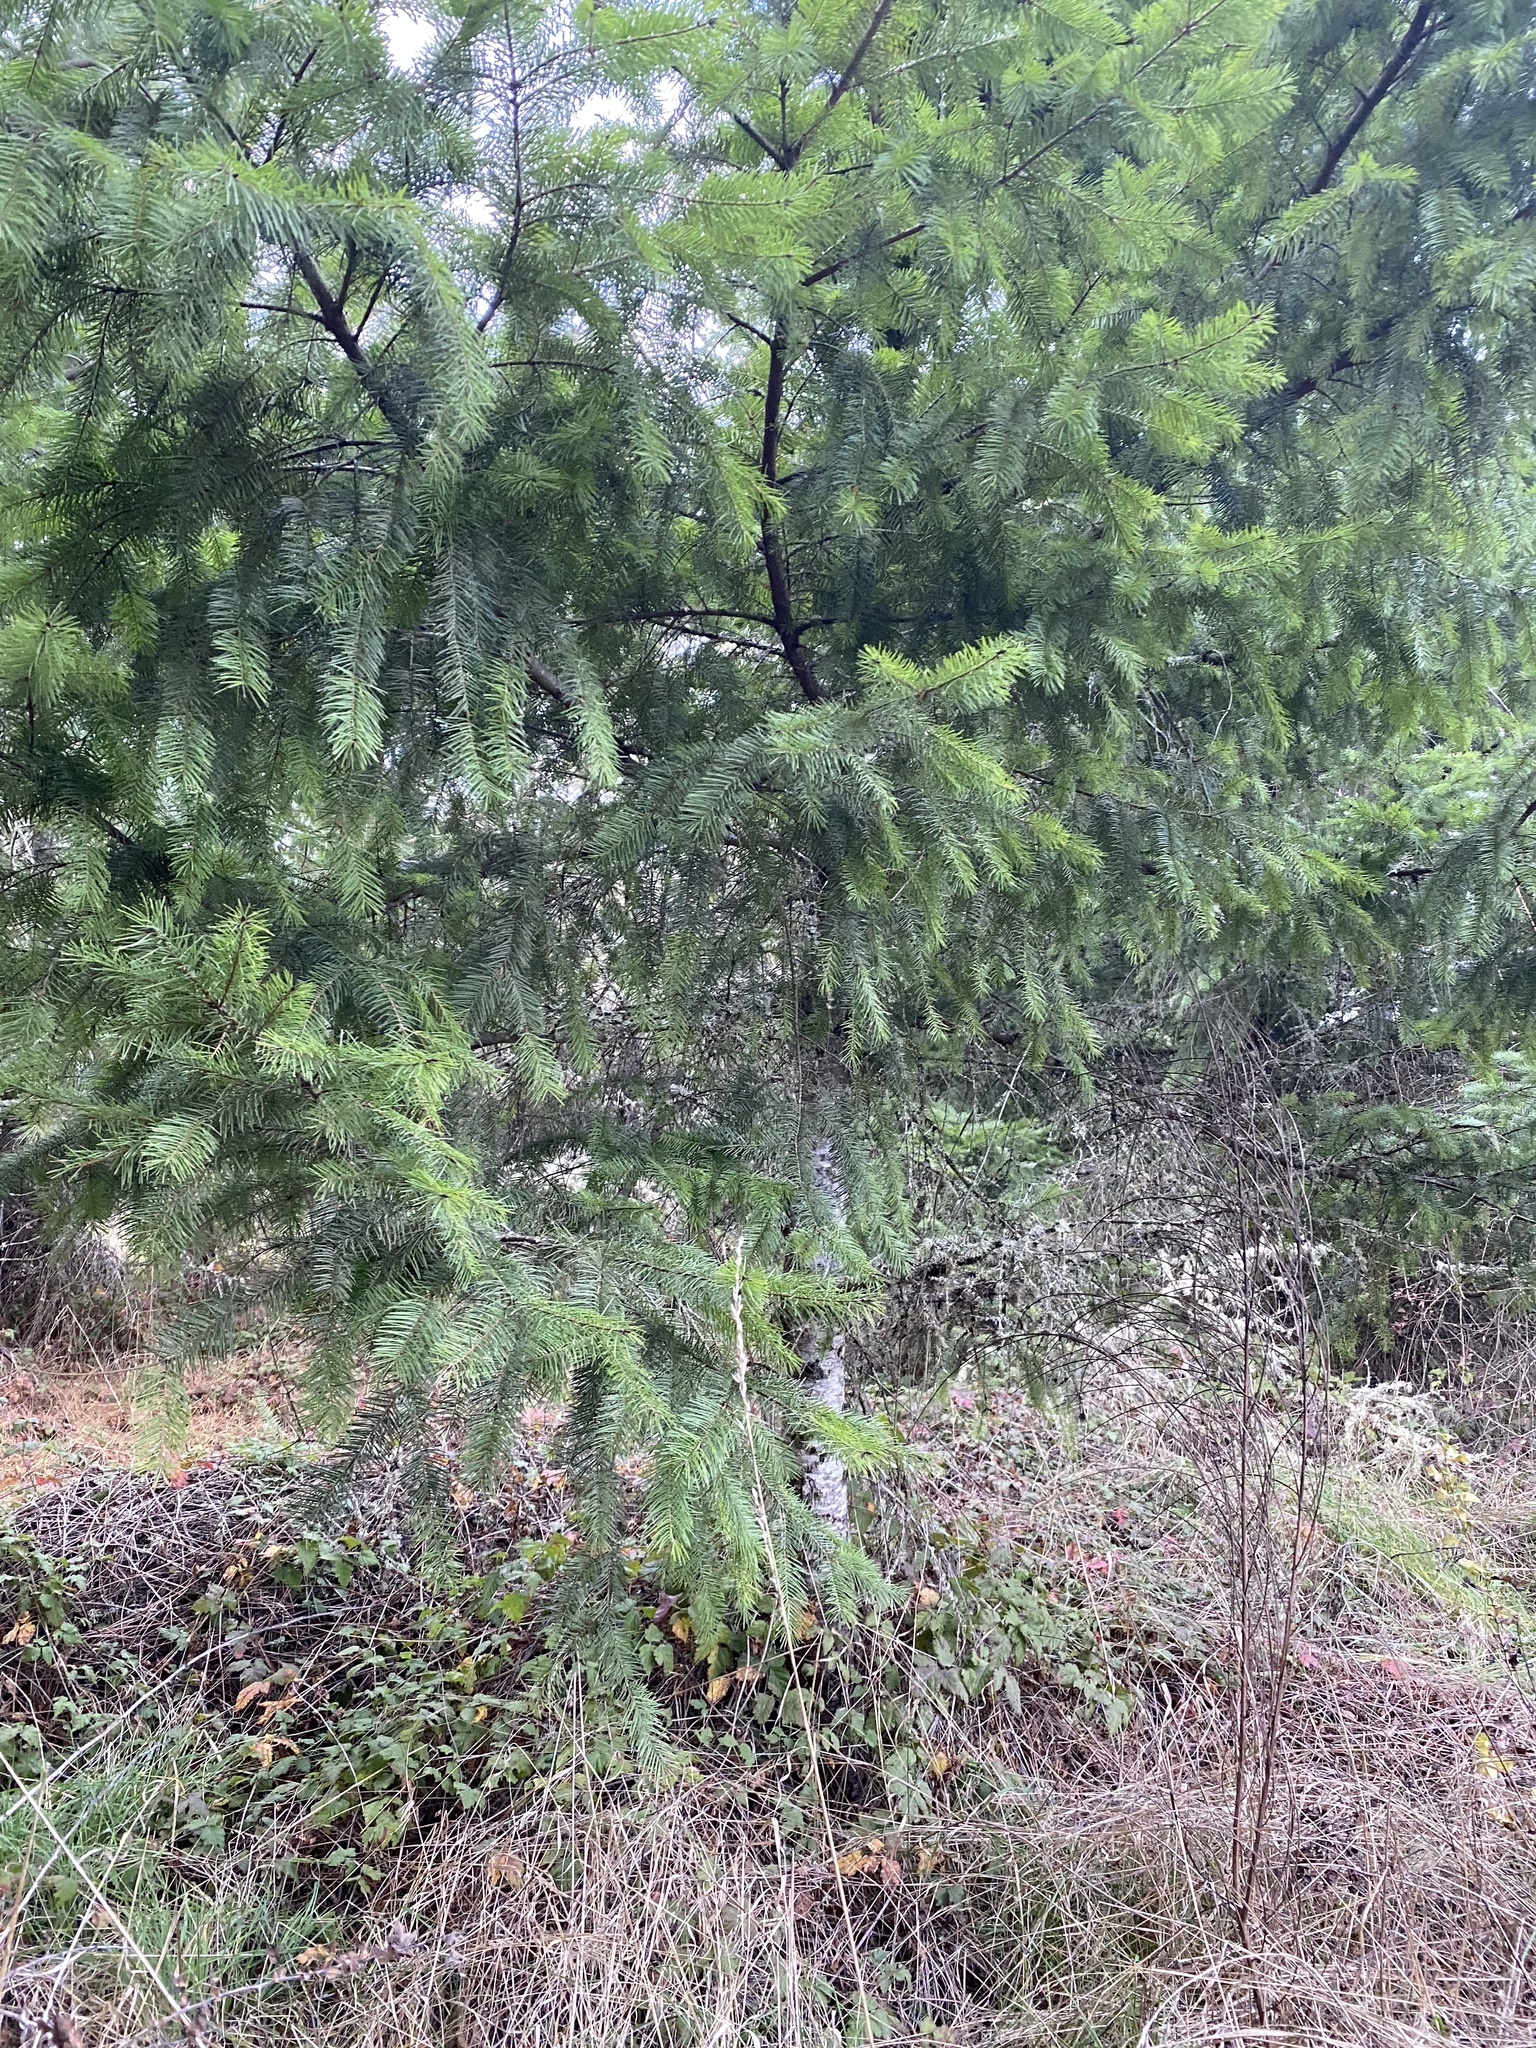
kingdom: Plantae
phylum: Tracheophyta
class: Pinopsida
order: Pinales
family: Pinaceae
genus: Pseudotsuga
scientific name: Pseudotsuga menziesii
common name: Douglas fir
